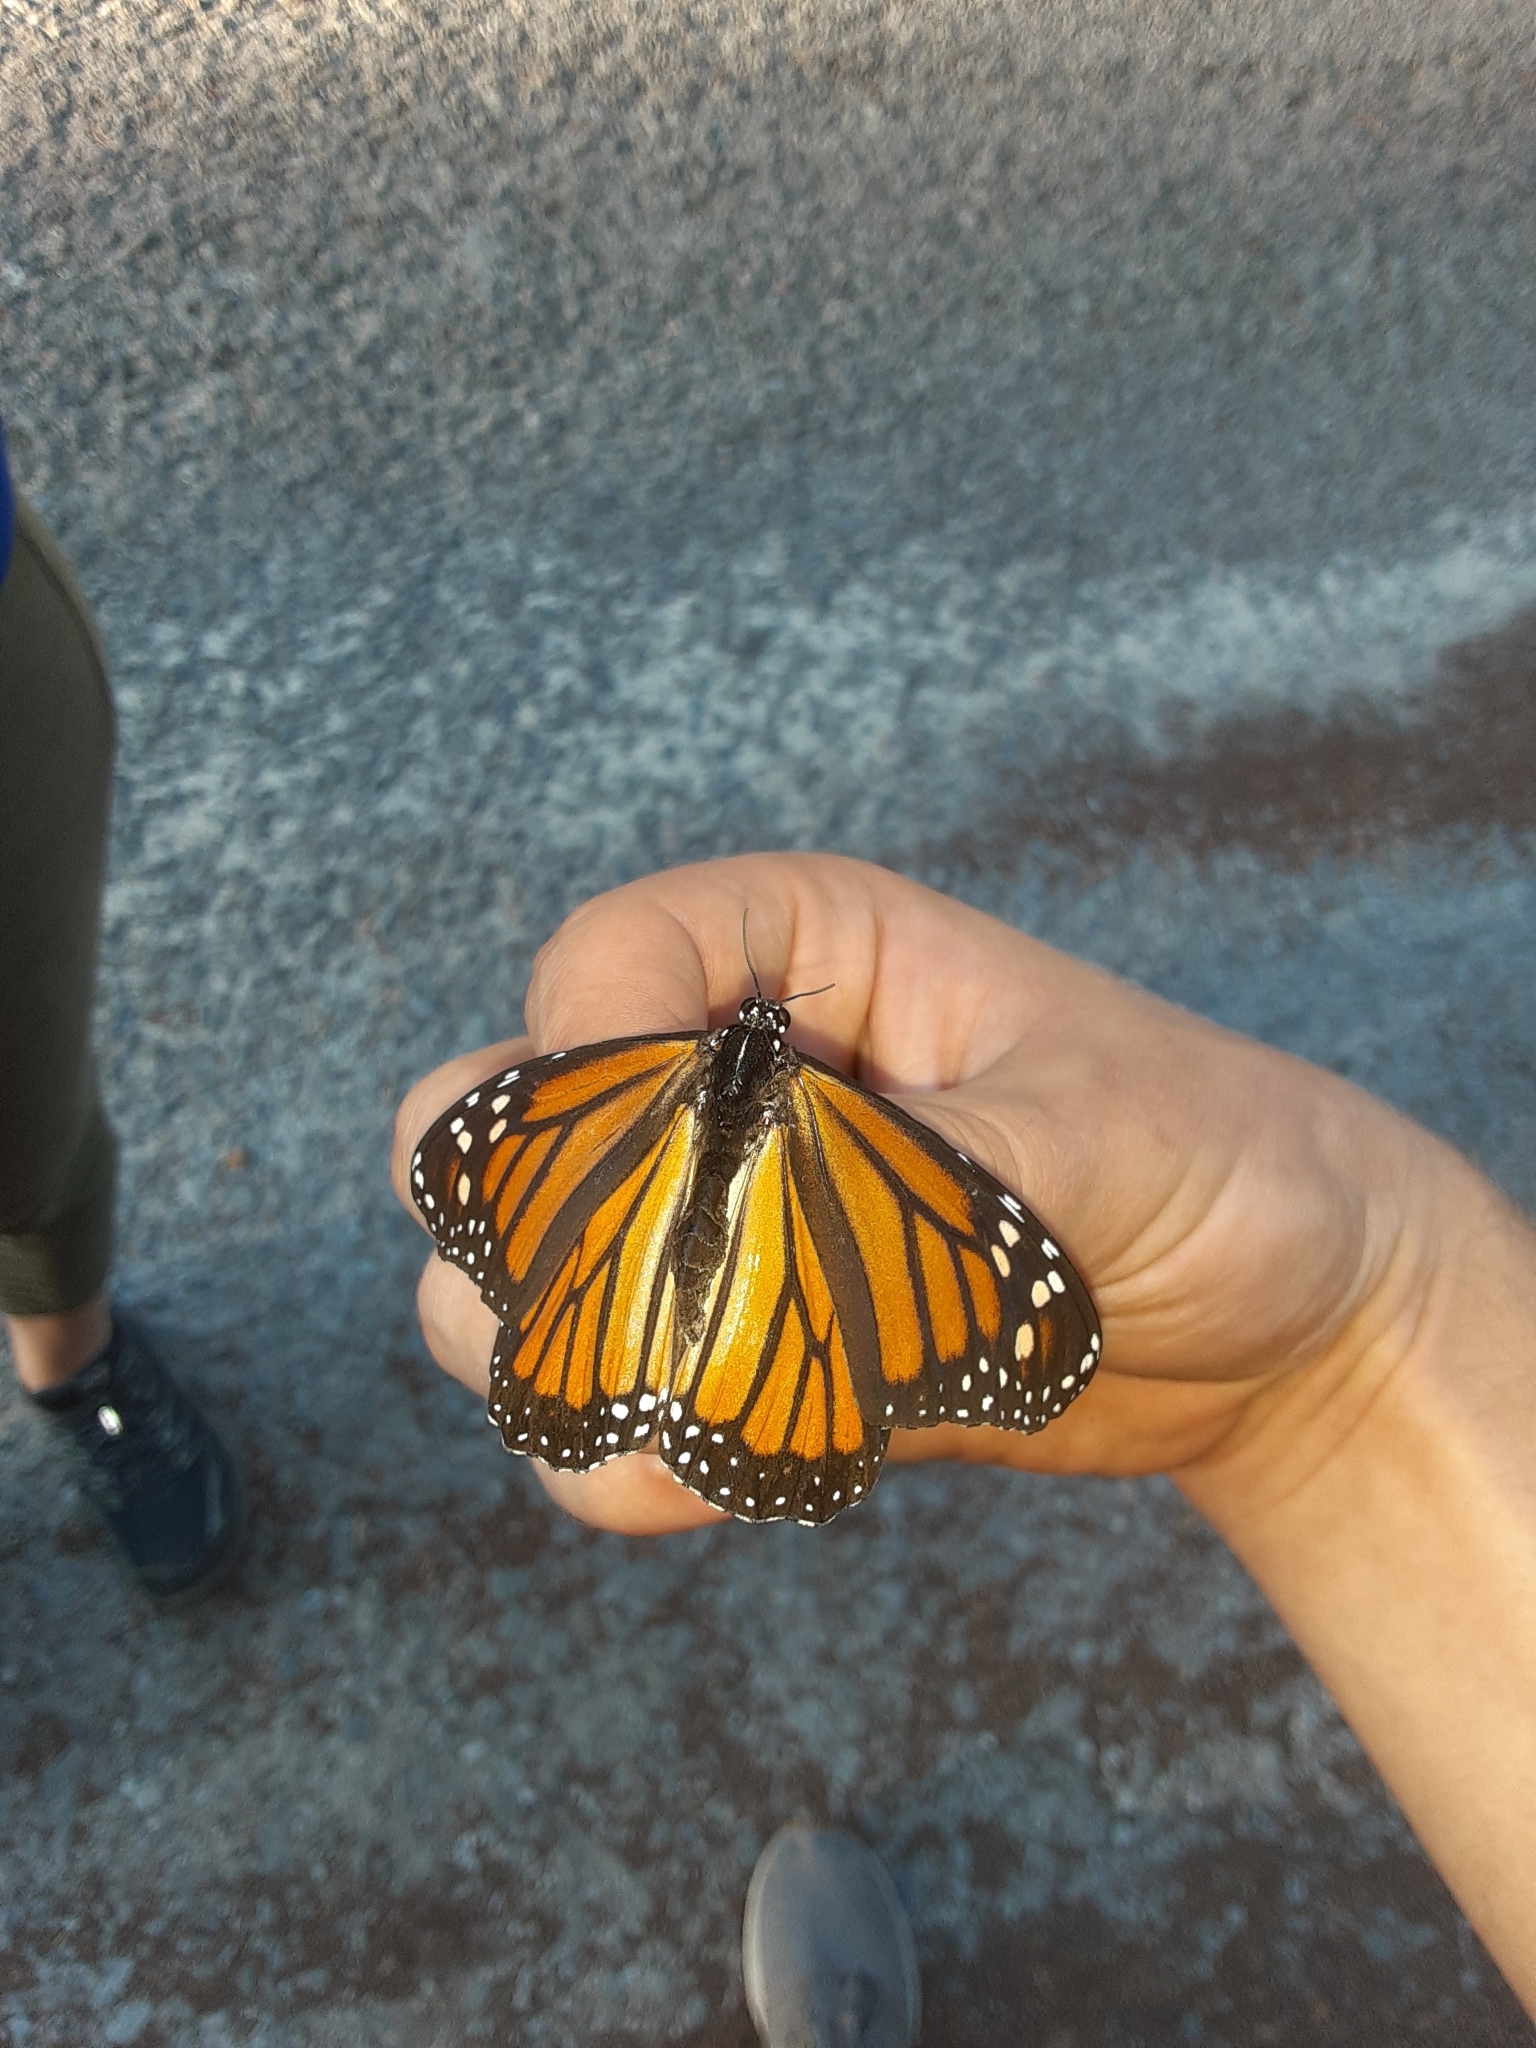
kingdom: Animalia
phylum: Arthropoda
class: Insecta
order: Lepidoptera
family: Nymphalidae
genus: Danaus
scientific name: Danaus plexippus
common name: Monarch
